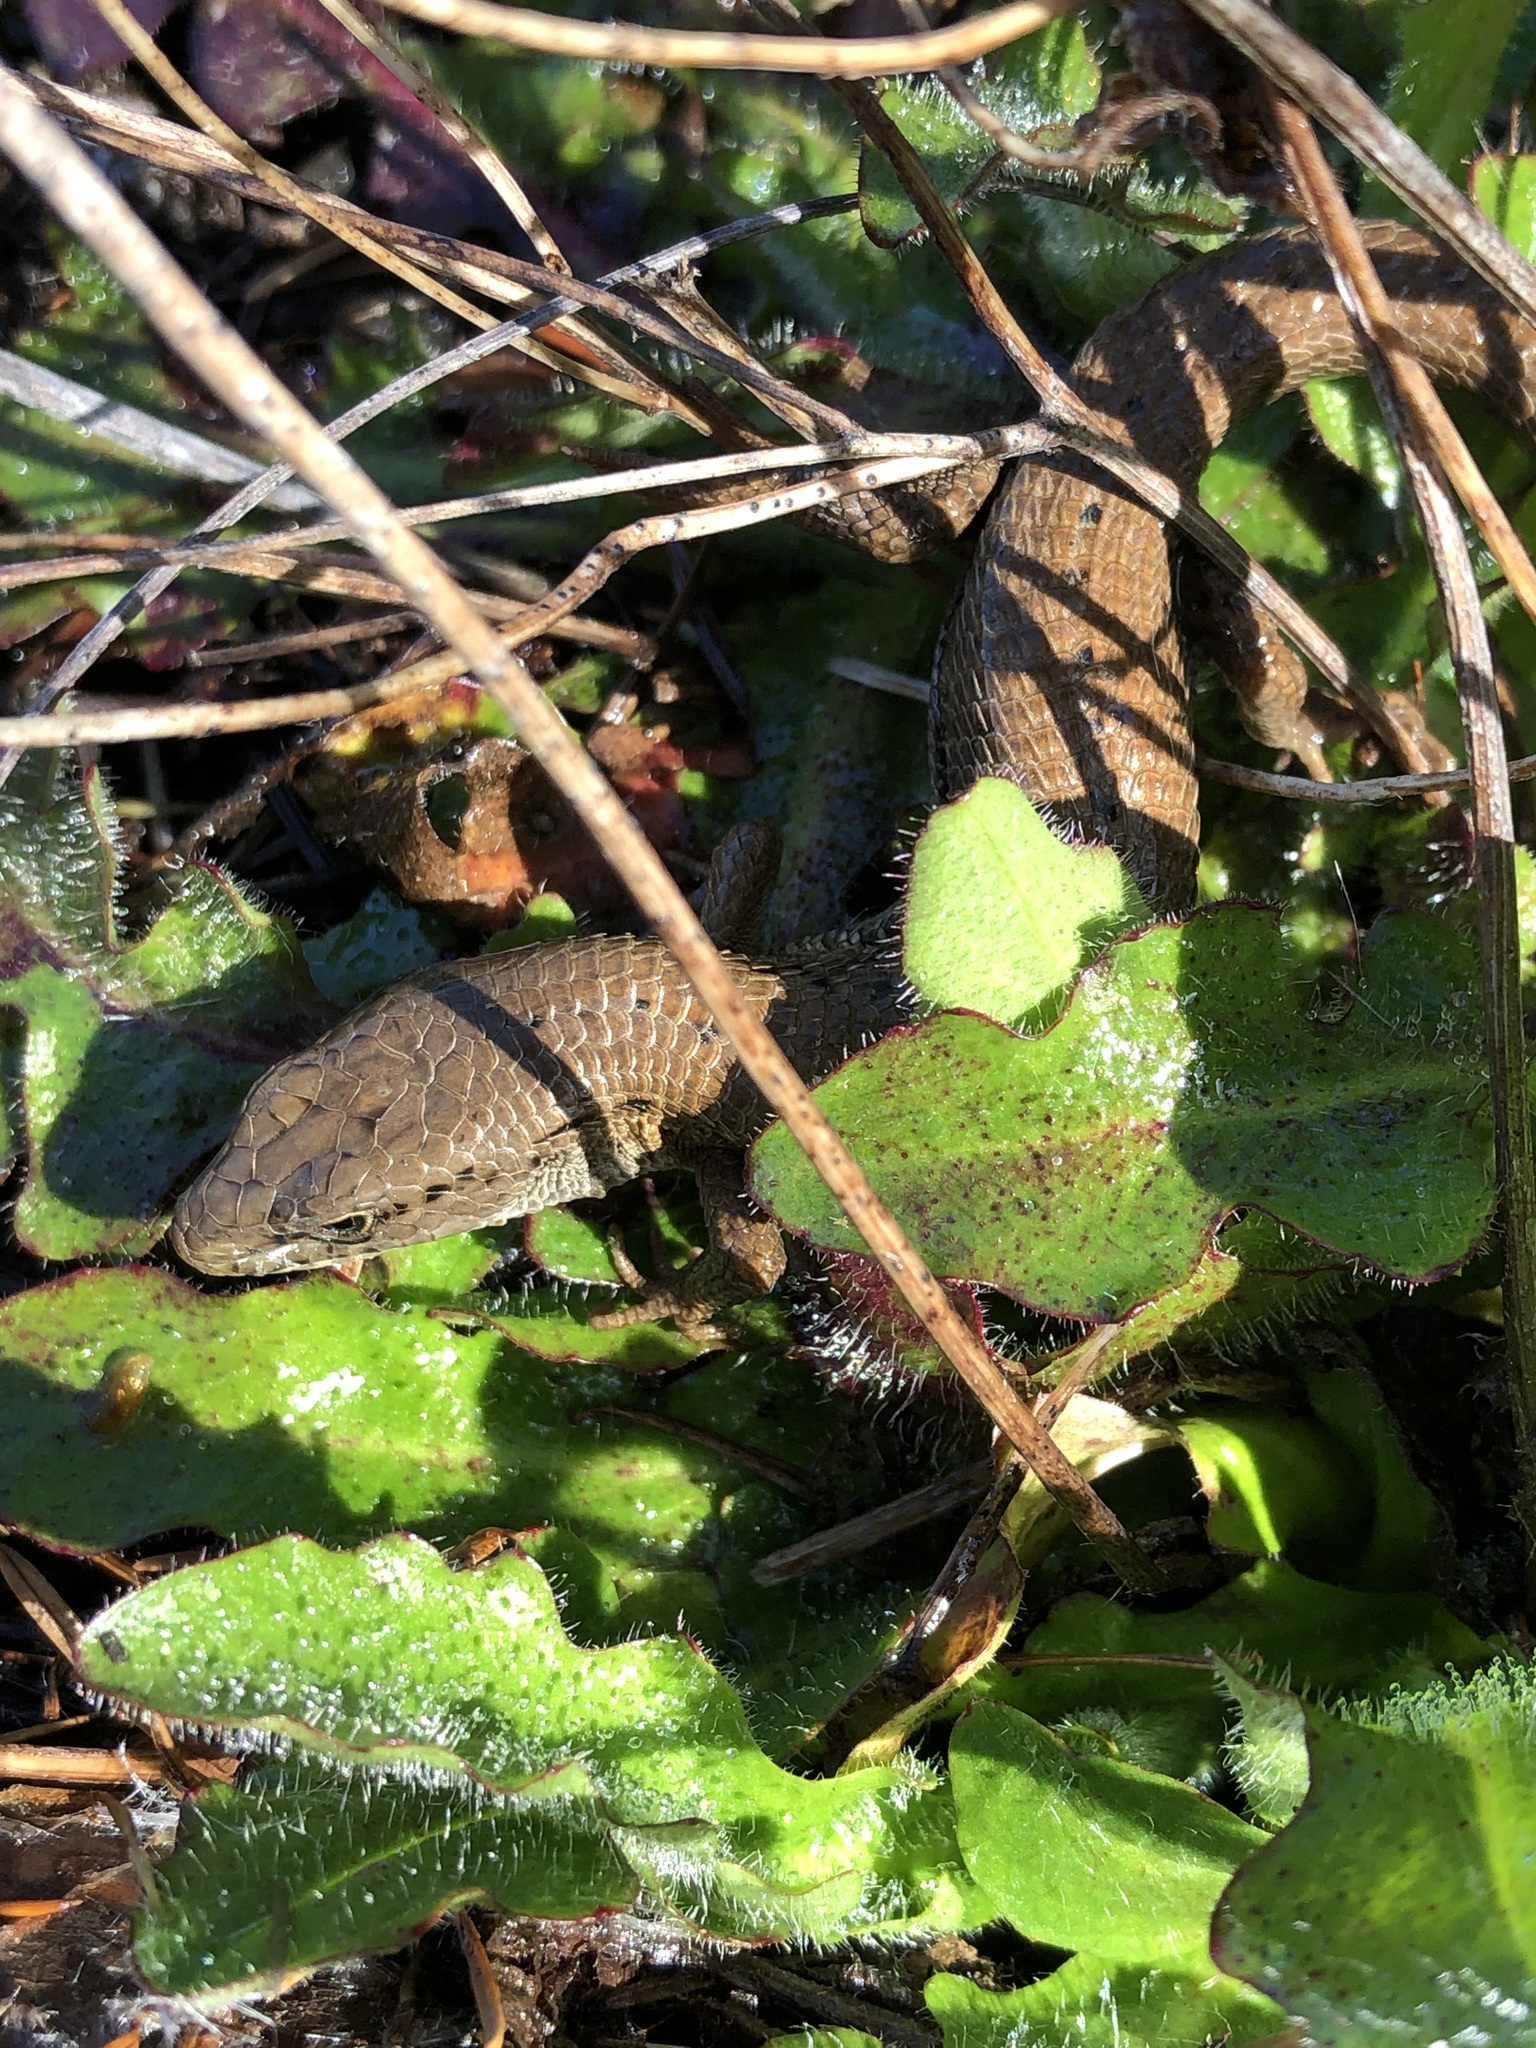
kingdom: Animalia
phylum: Chordata
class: Squamata
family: Anguidae
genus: Elgaria
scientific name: Elgaria coerulea
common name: Northern alligator lizard
